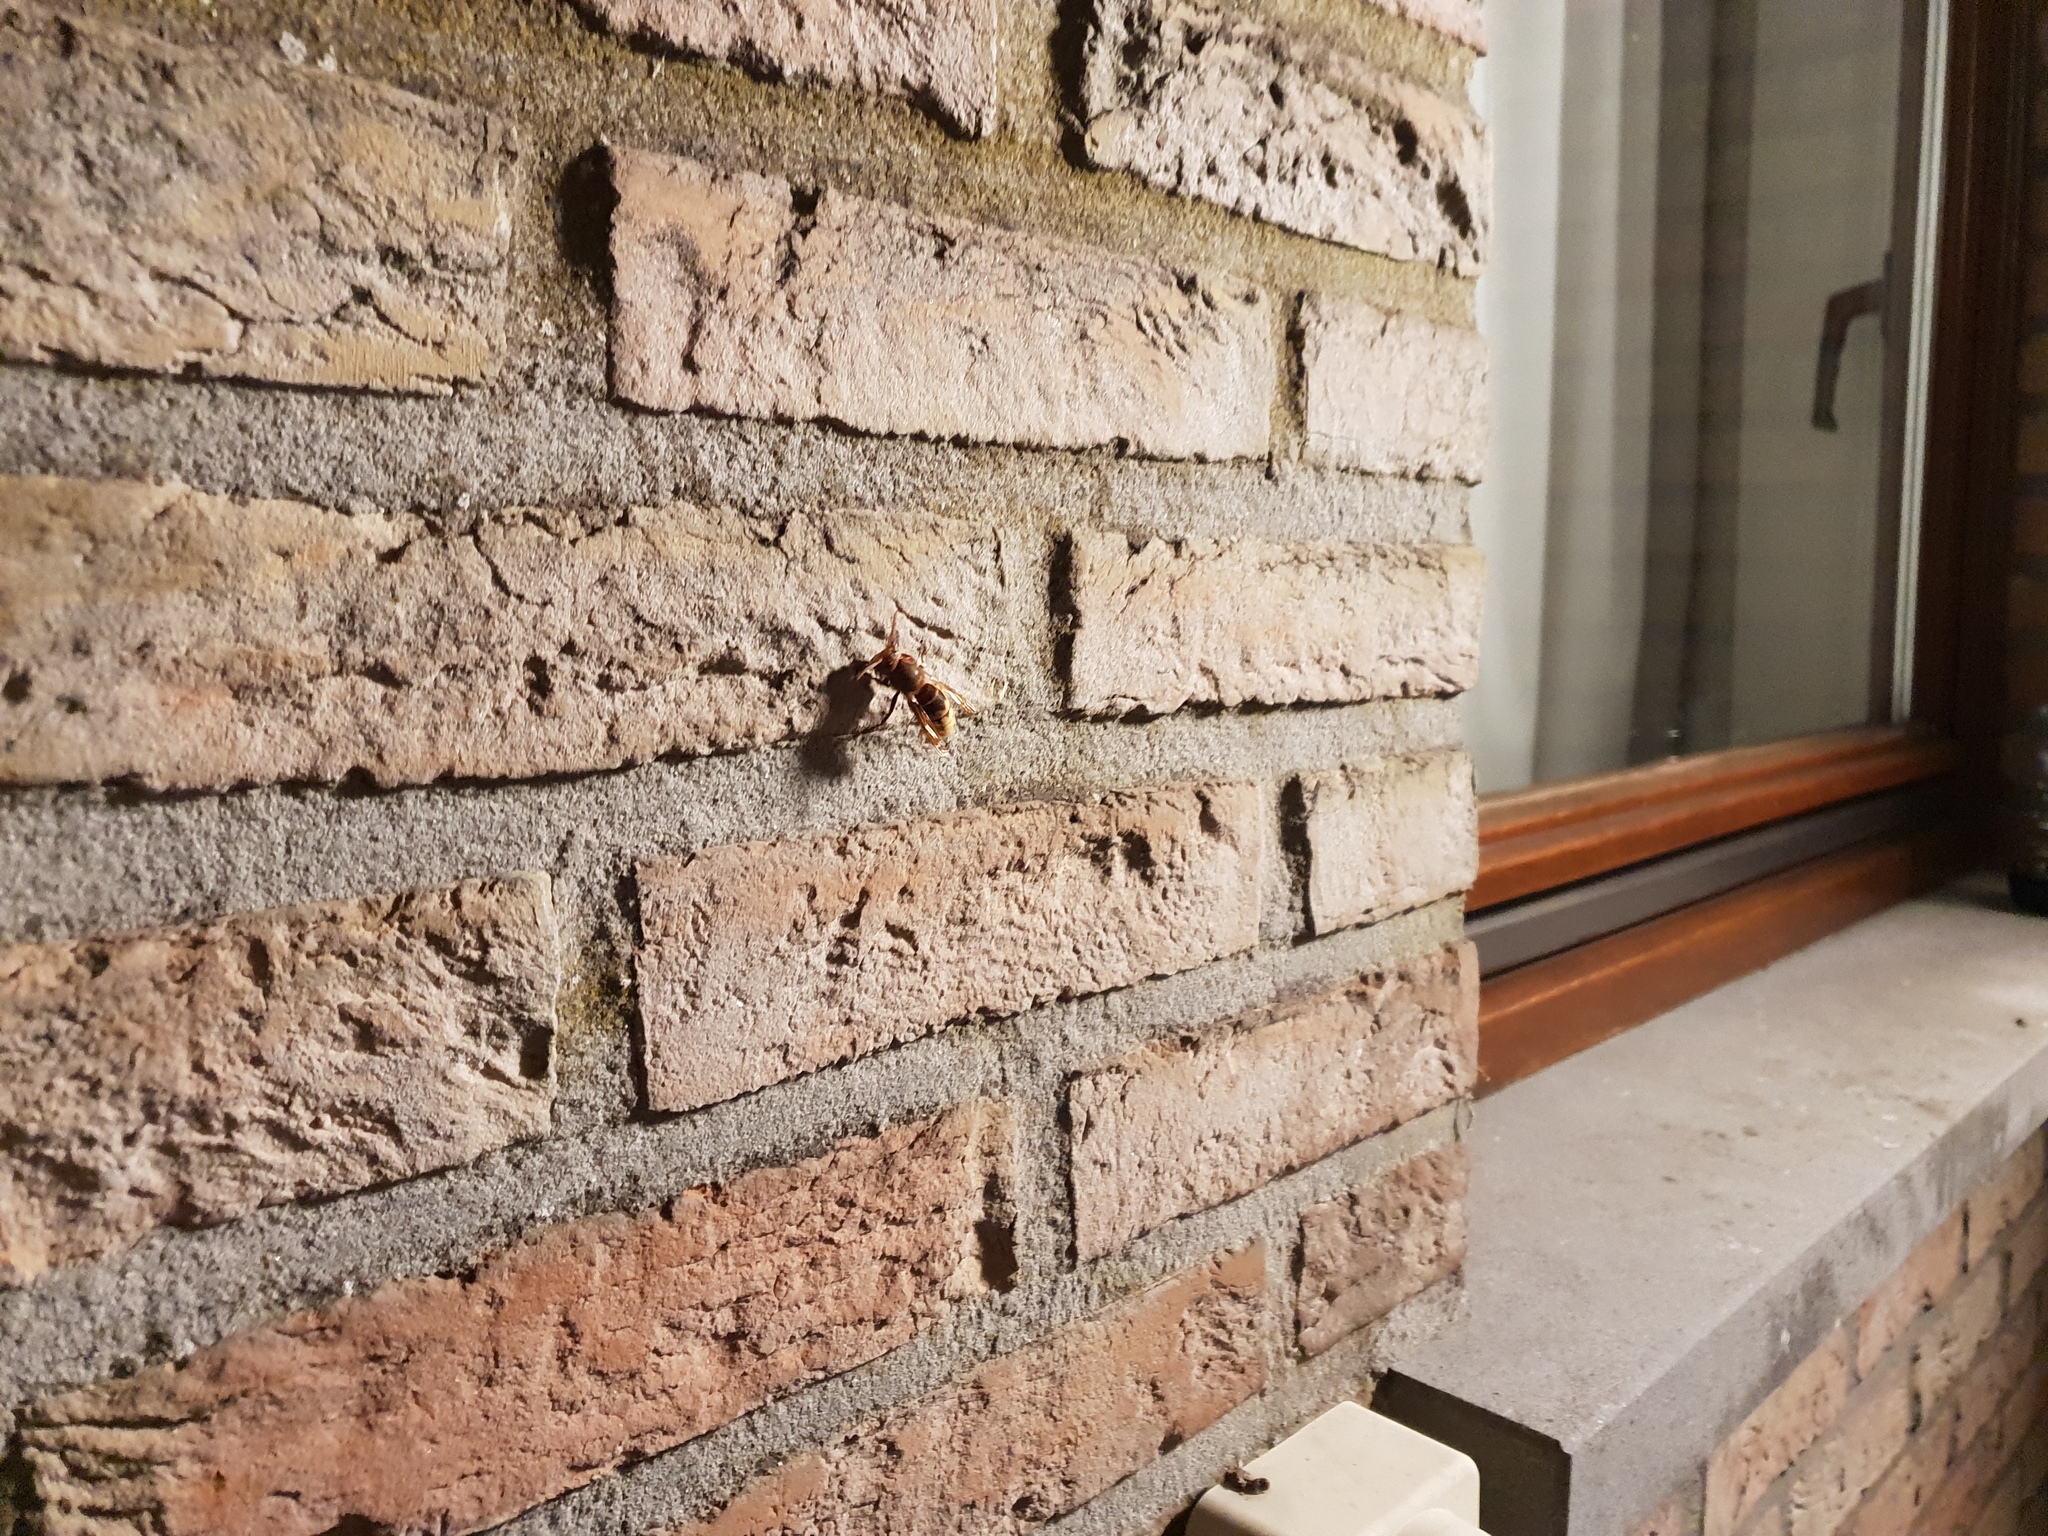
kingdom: Animalia
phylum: Arthropoda
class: Insecta
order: Hymenoptera
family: Vespidae
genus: Vespa
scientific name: Vespa crabro
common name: Hornet
